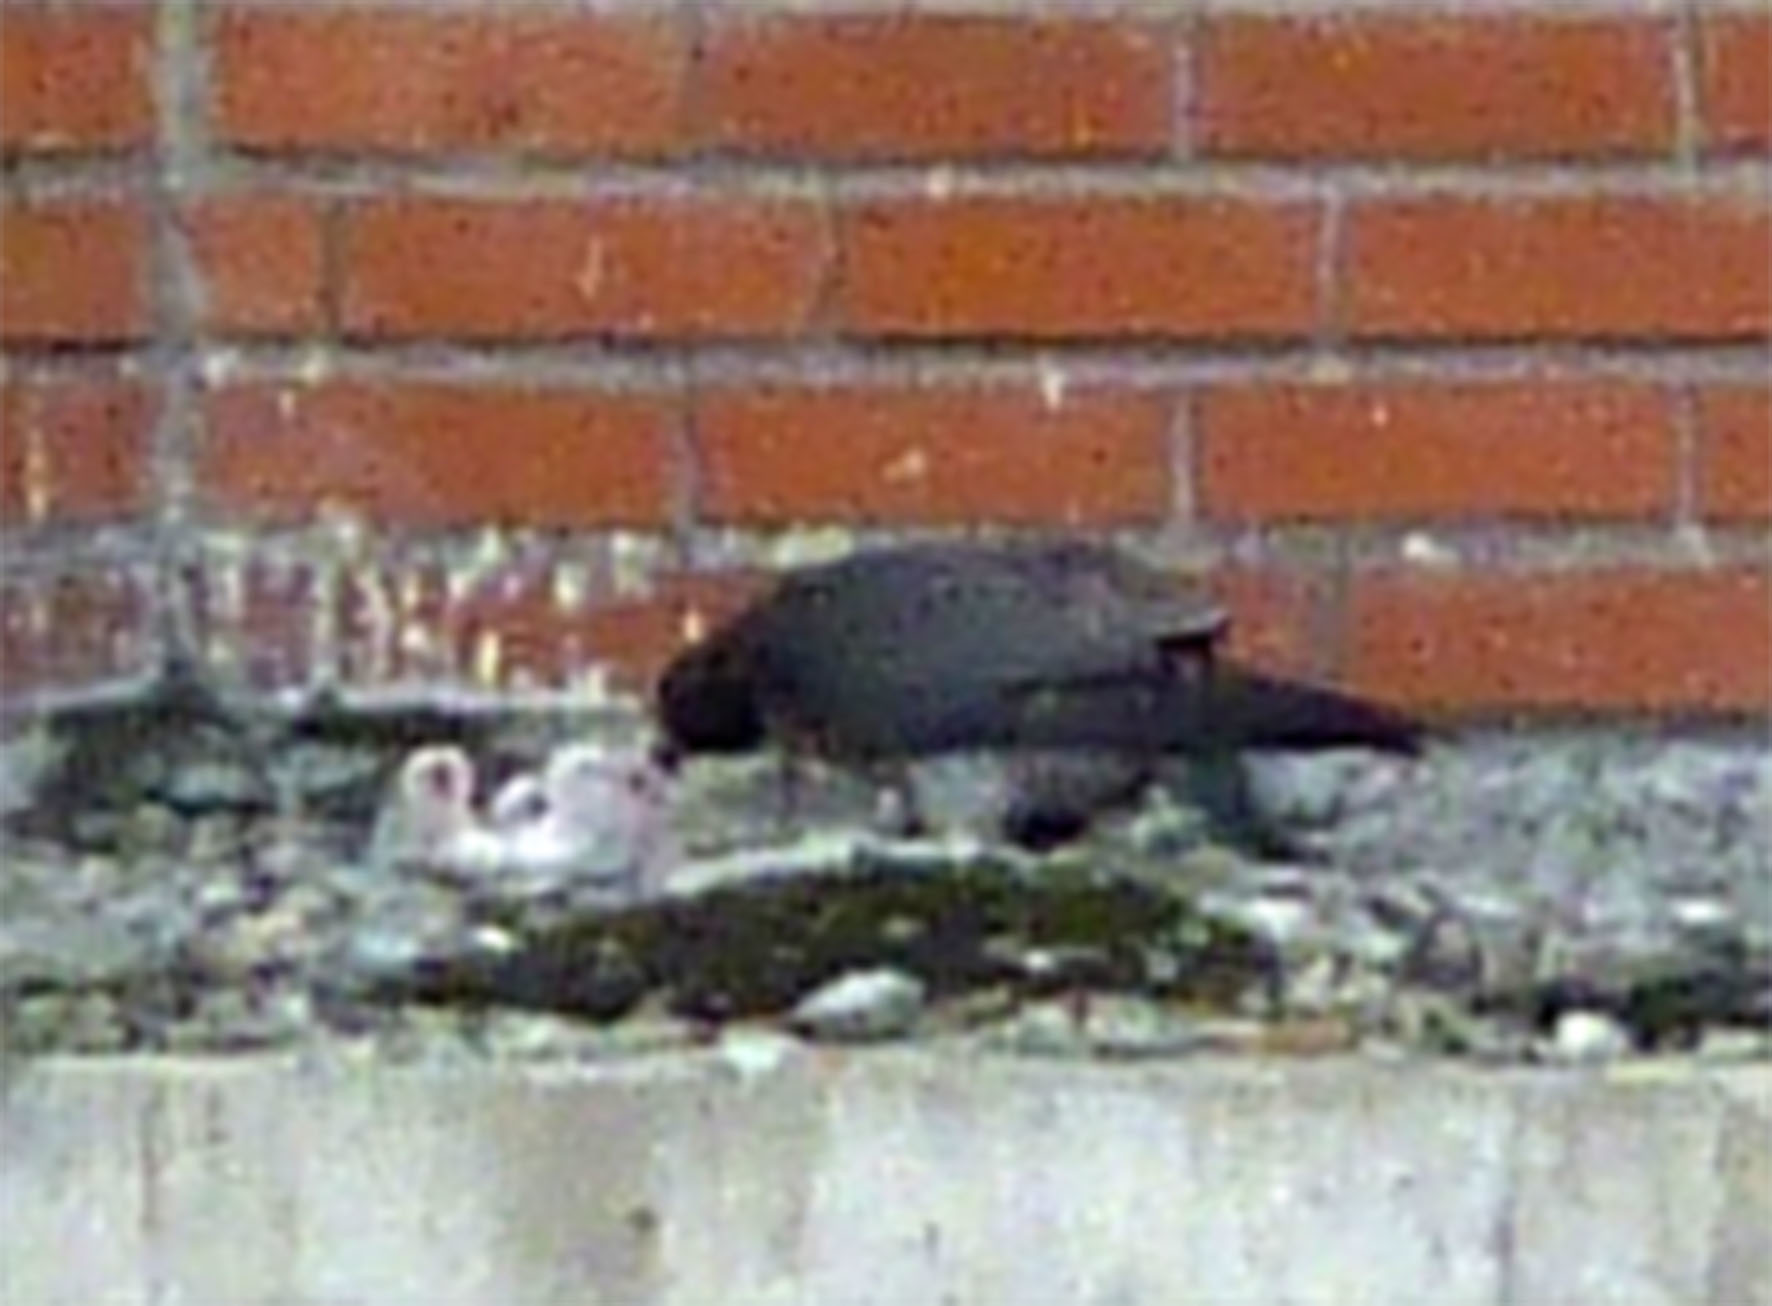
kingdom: Animalia
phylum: Chordata
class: Aves
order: Falconiformes
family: Falconidae
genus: Falco
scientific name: Falco peregrinus
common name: Peregrine falcon
